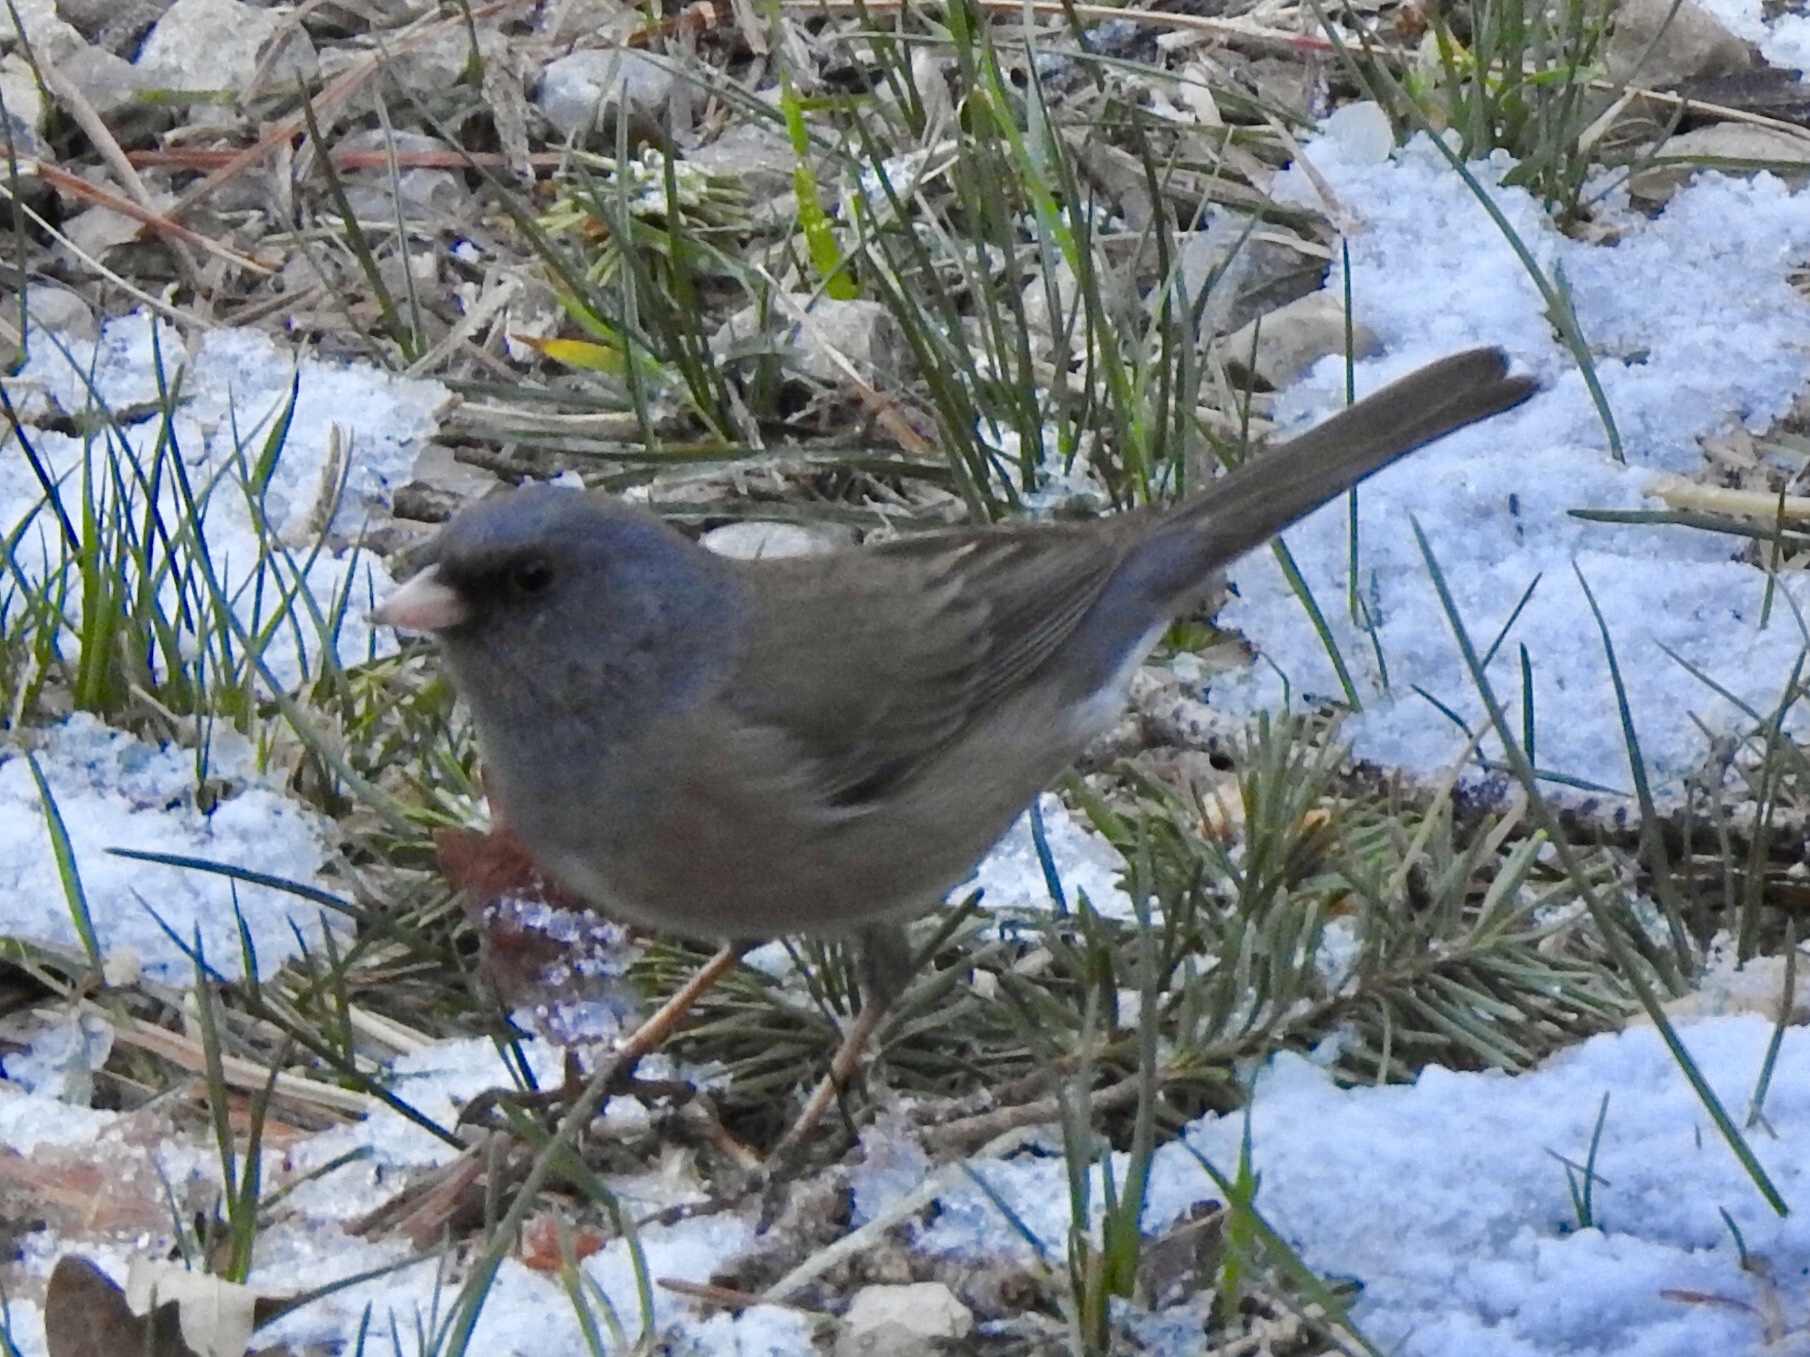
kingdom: Animalia
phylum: Chordata
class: Aves
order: Passeriformes
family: Passerellidae
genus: Junco
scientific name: Junco hyemalis
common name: Dark-eyed junco
